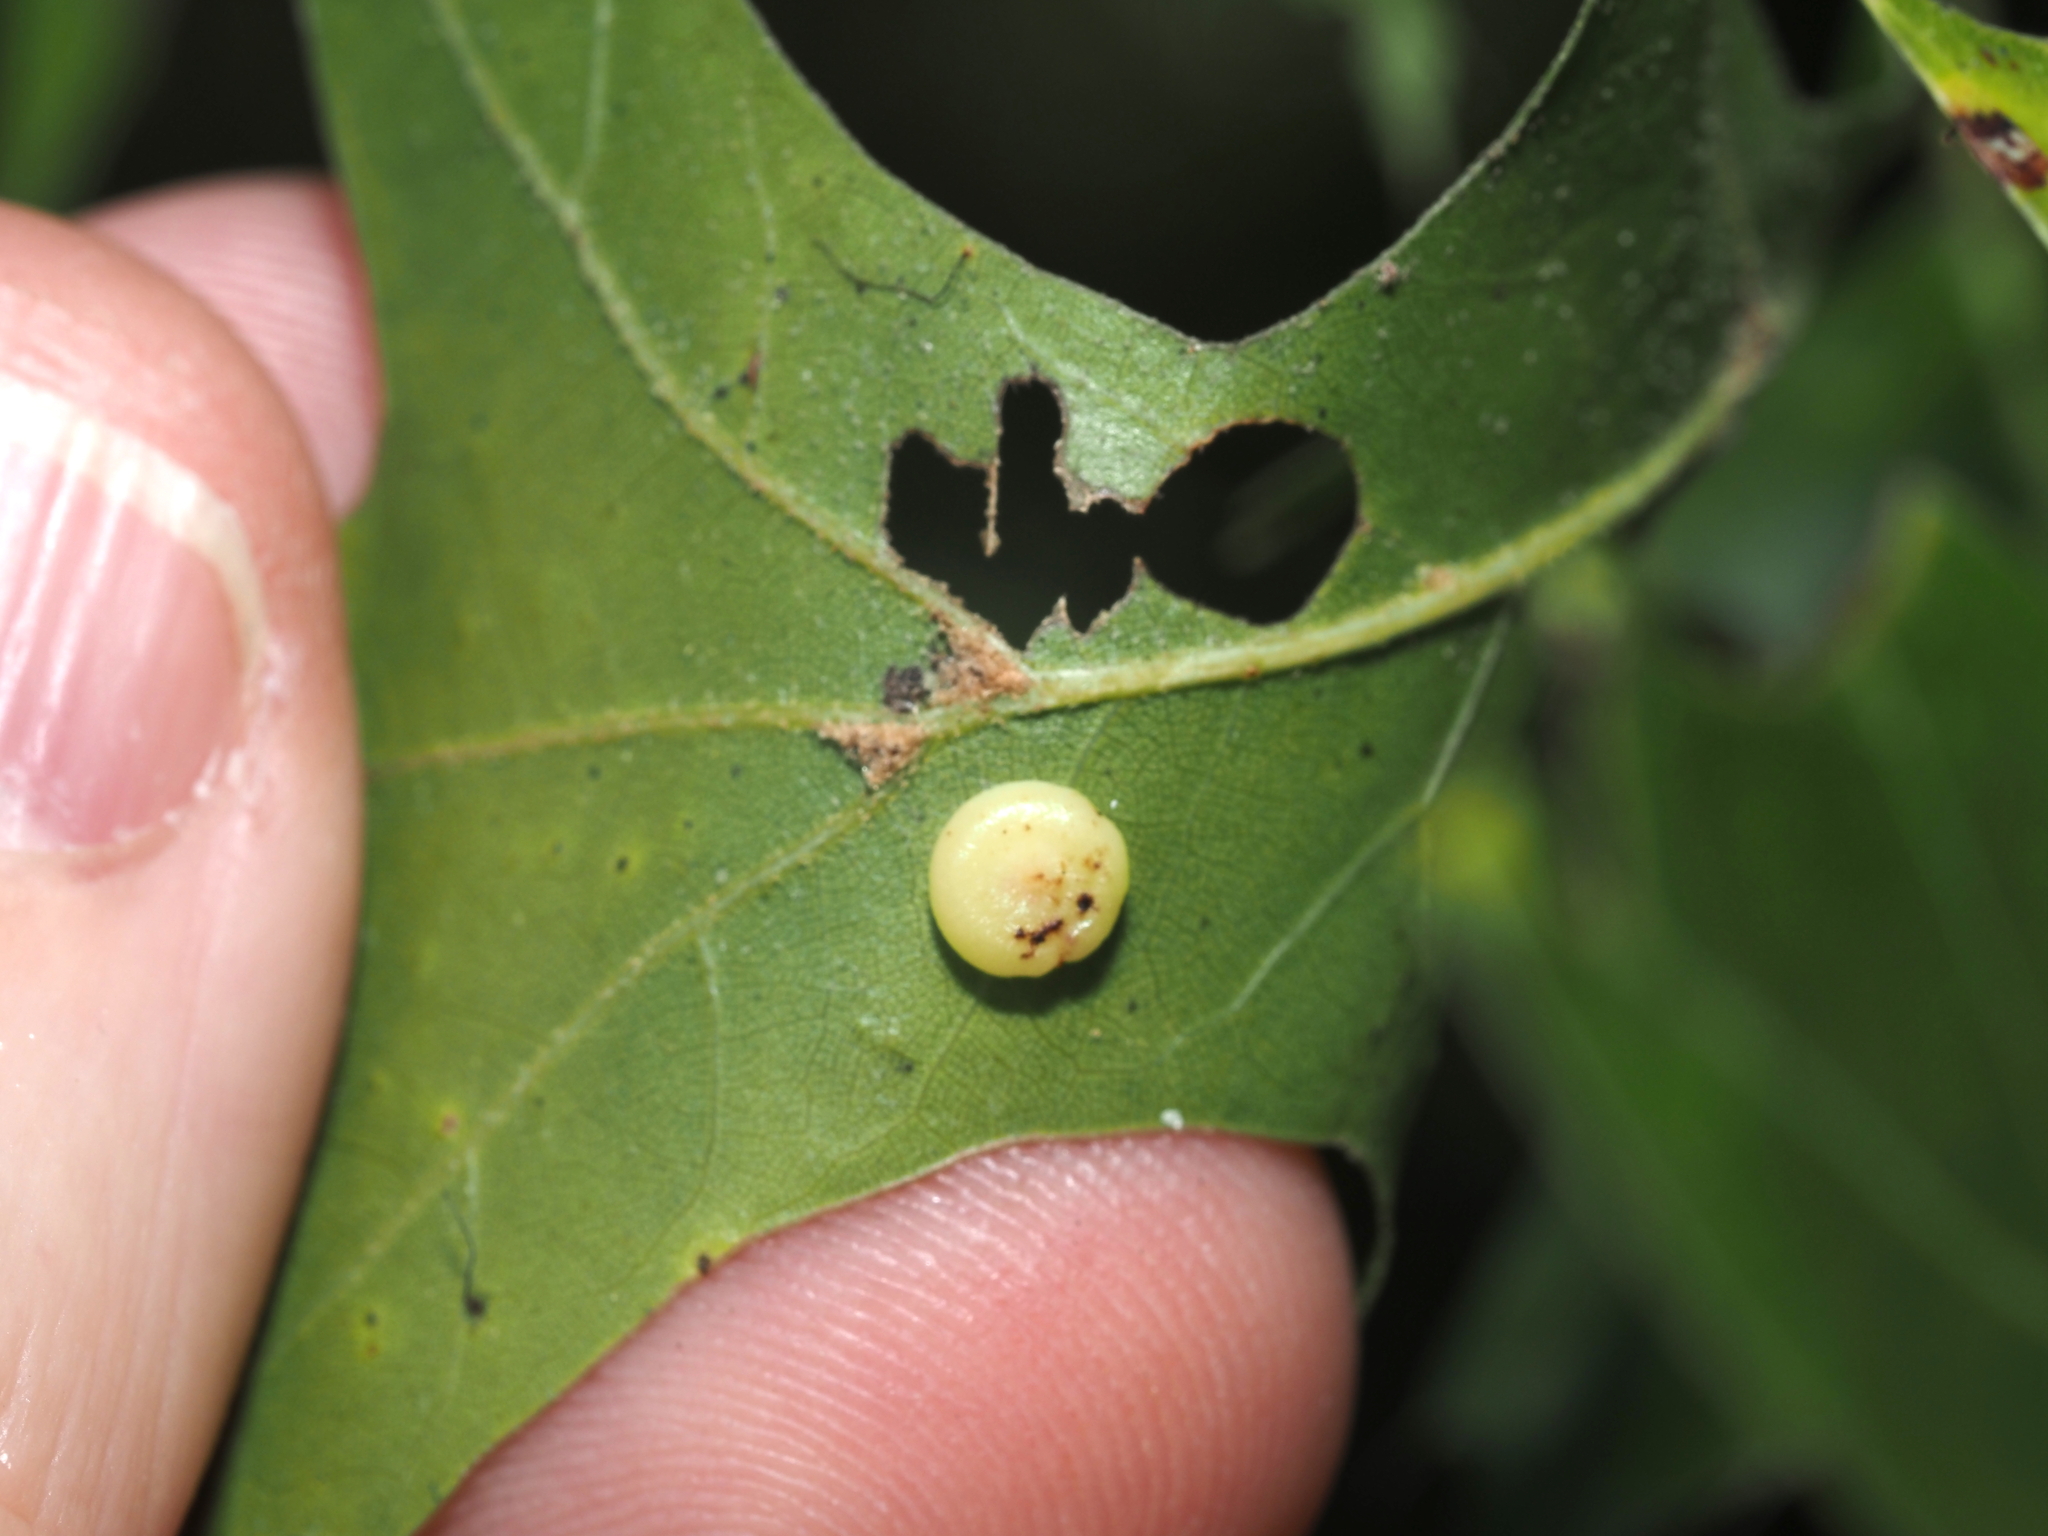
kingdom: Animalia
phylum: Arthropoda
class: Insecta
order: Hymenoptera
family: Cynipidae
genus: Dryocosmus
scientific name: Dryocosmus
